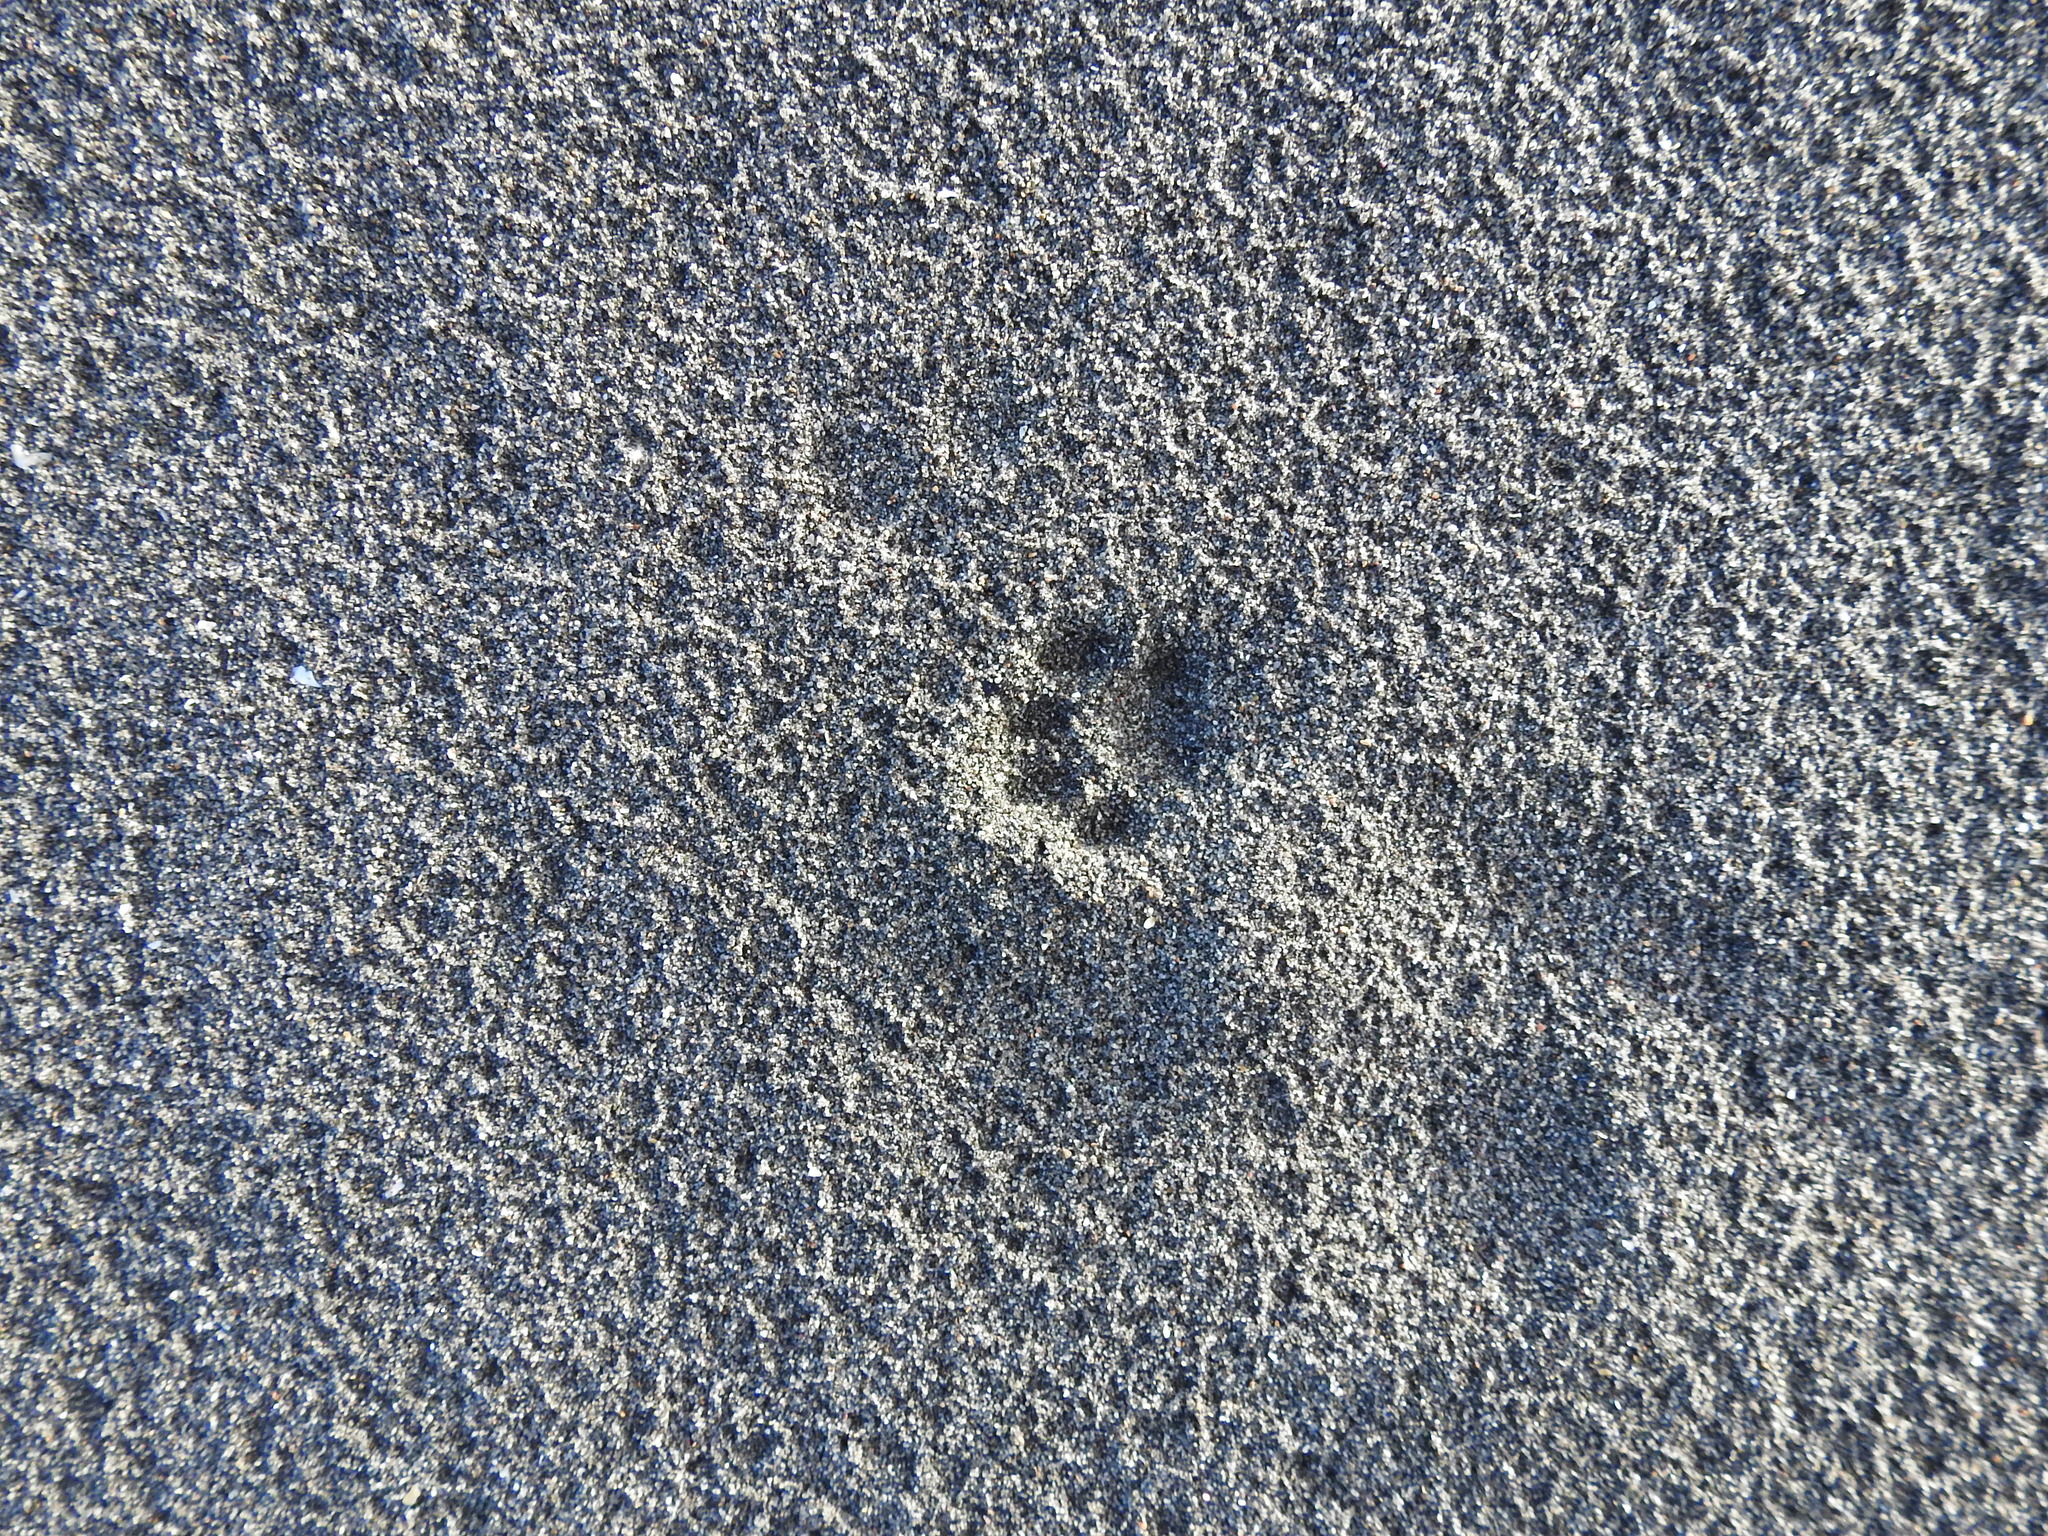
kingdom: Animalia
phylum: Chordata
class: Mammalia
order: Carnivora
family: Felidae
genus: Felis
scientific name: Felis catus
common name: Domestic cat
